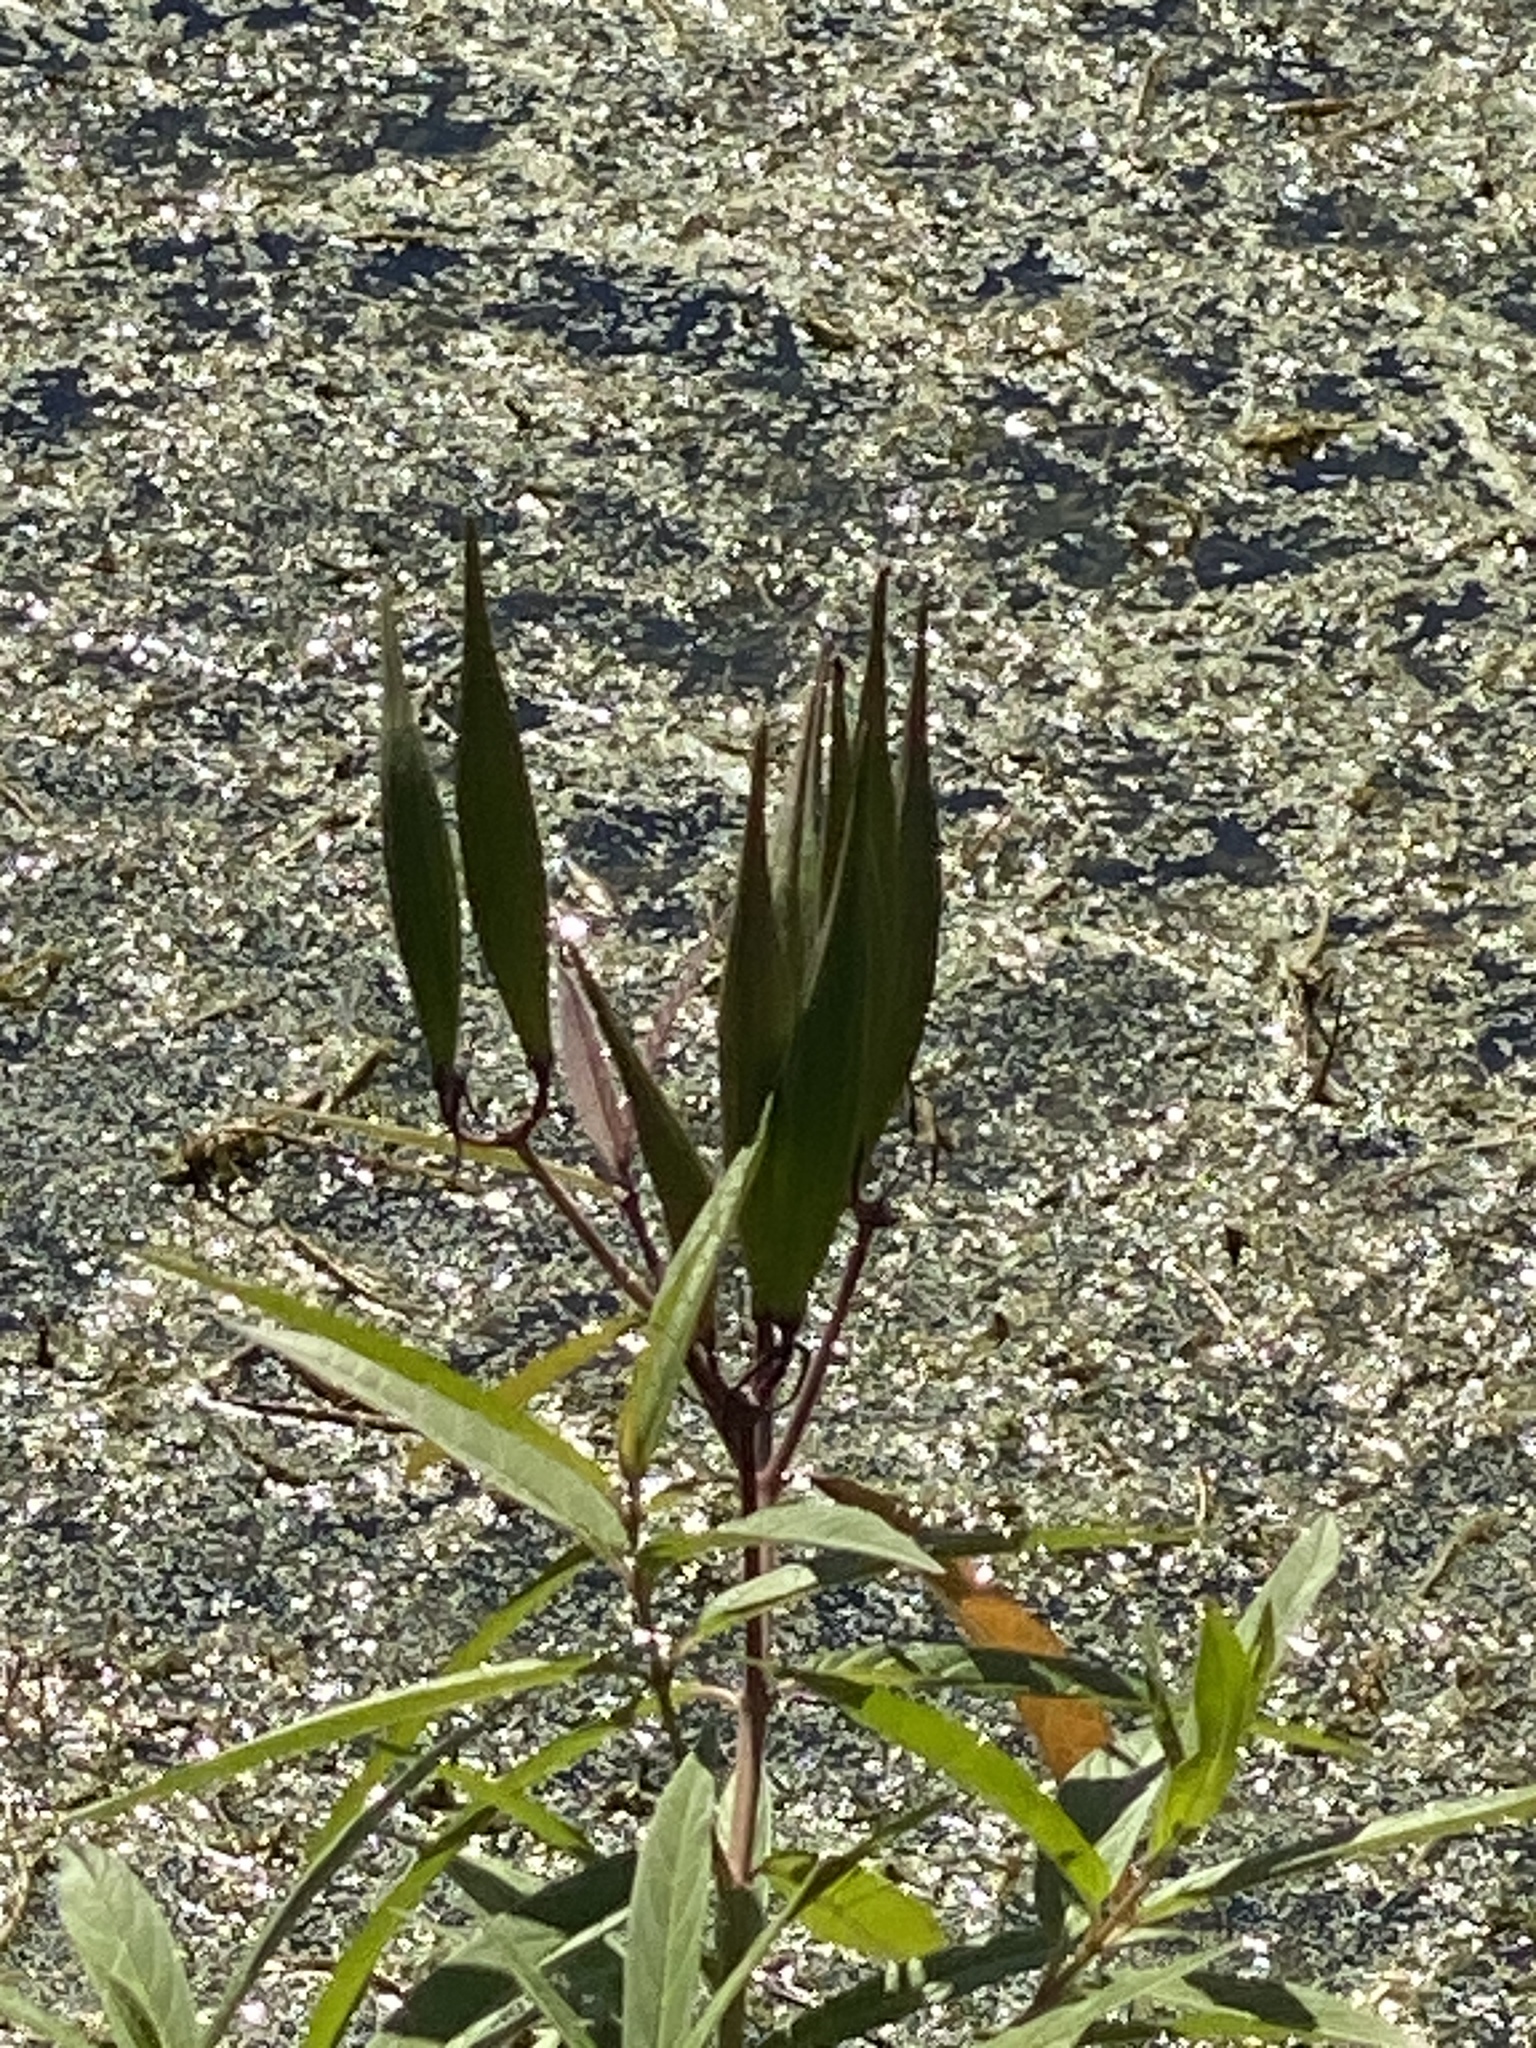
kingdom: Plantae
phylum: Tracheophyta
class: Magnoliopsida
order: Gentianales
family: Apocynaceae
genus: Asclepias
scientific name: Asclepias incarnata
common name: Swamp milkweed
